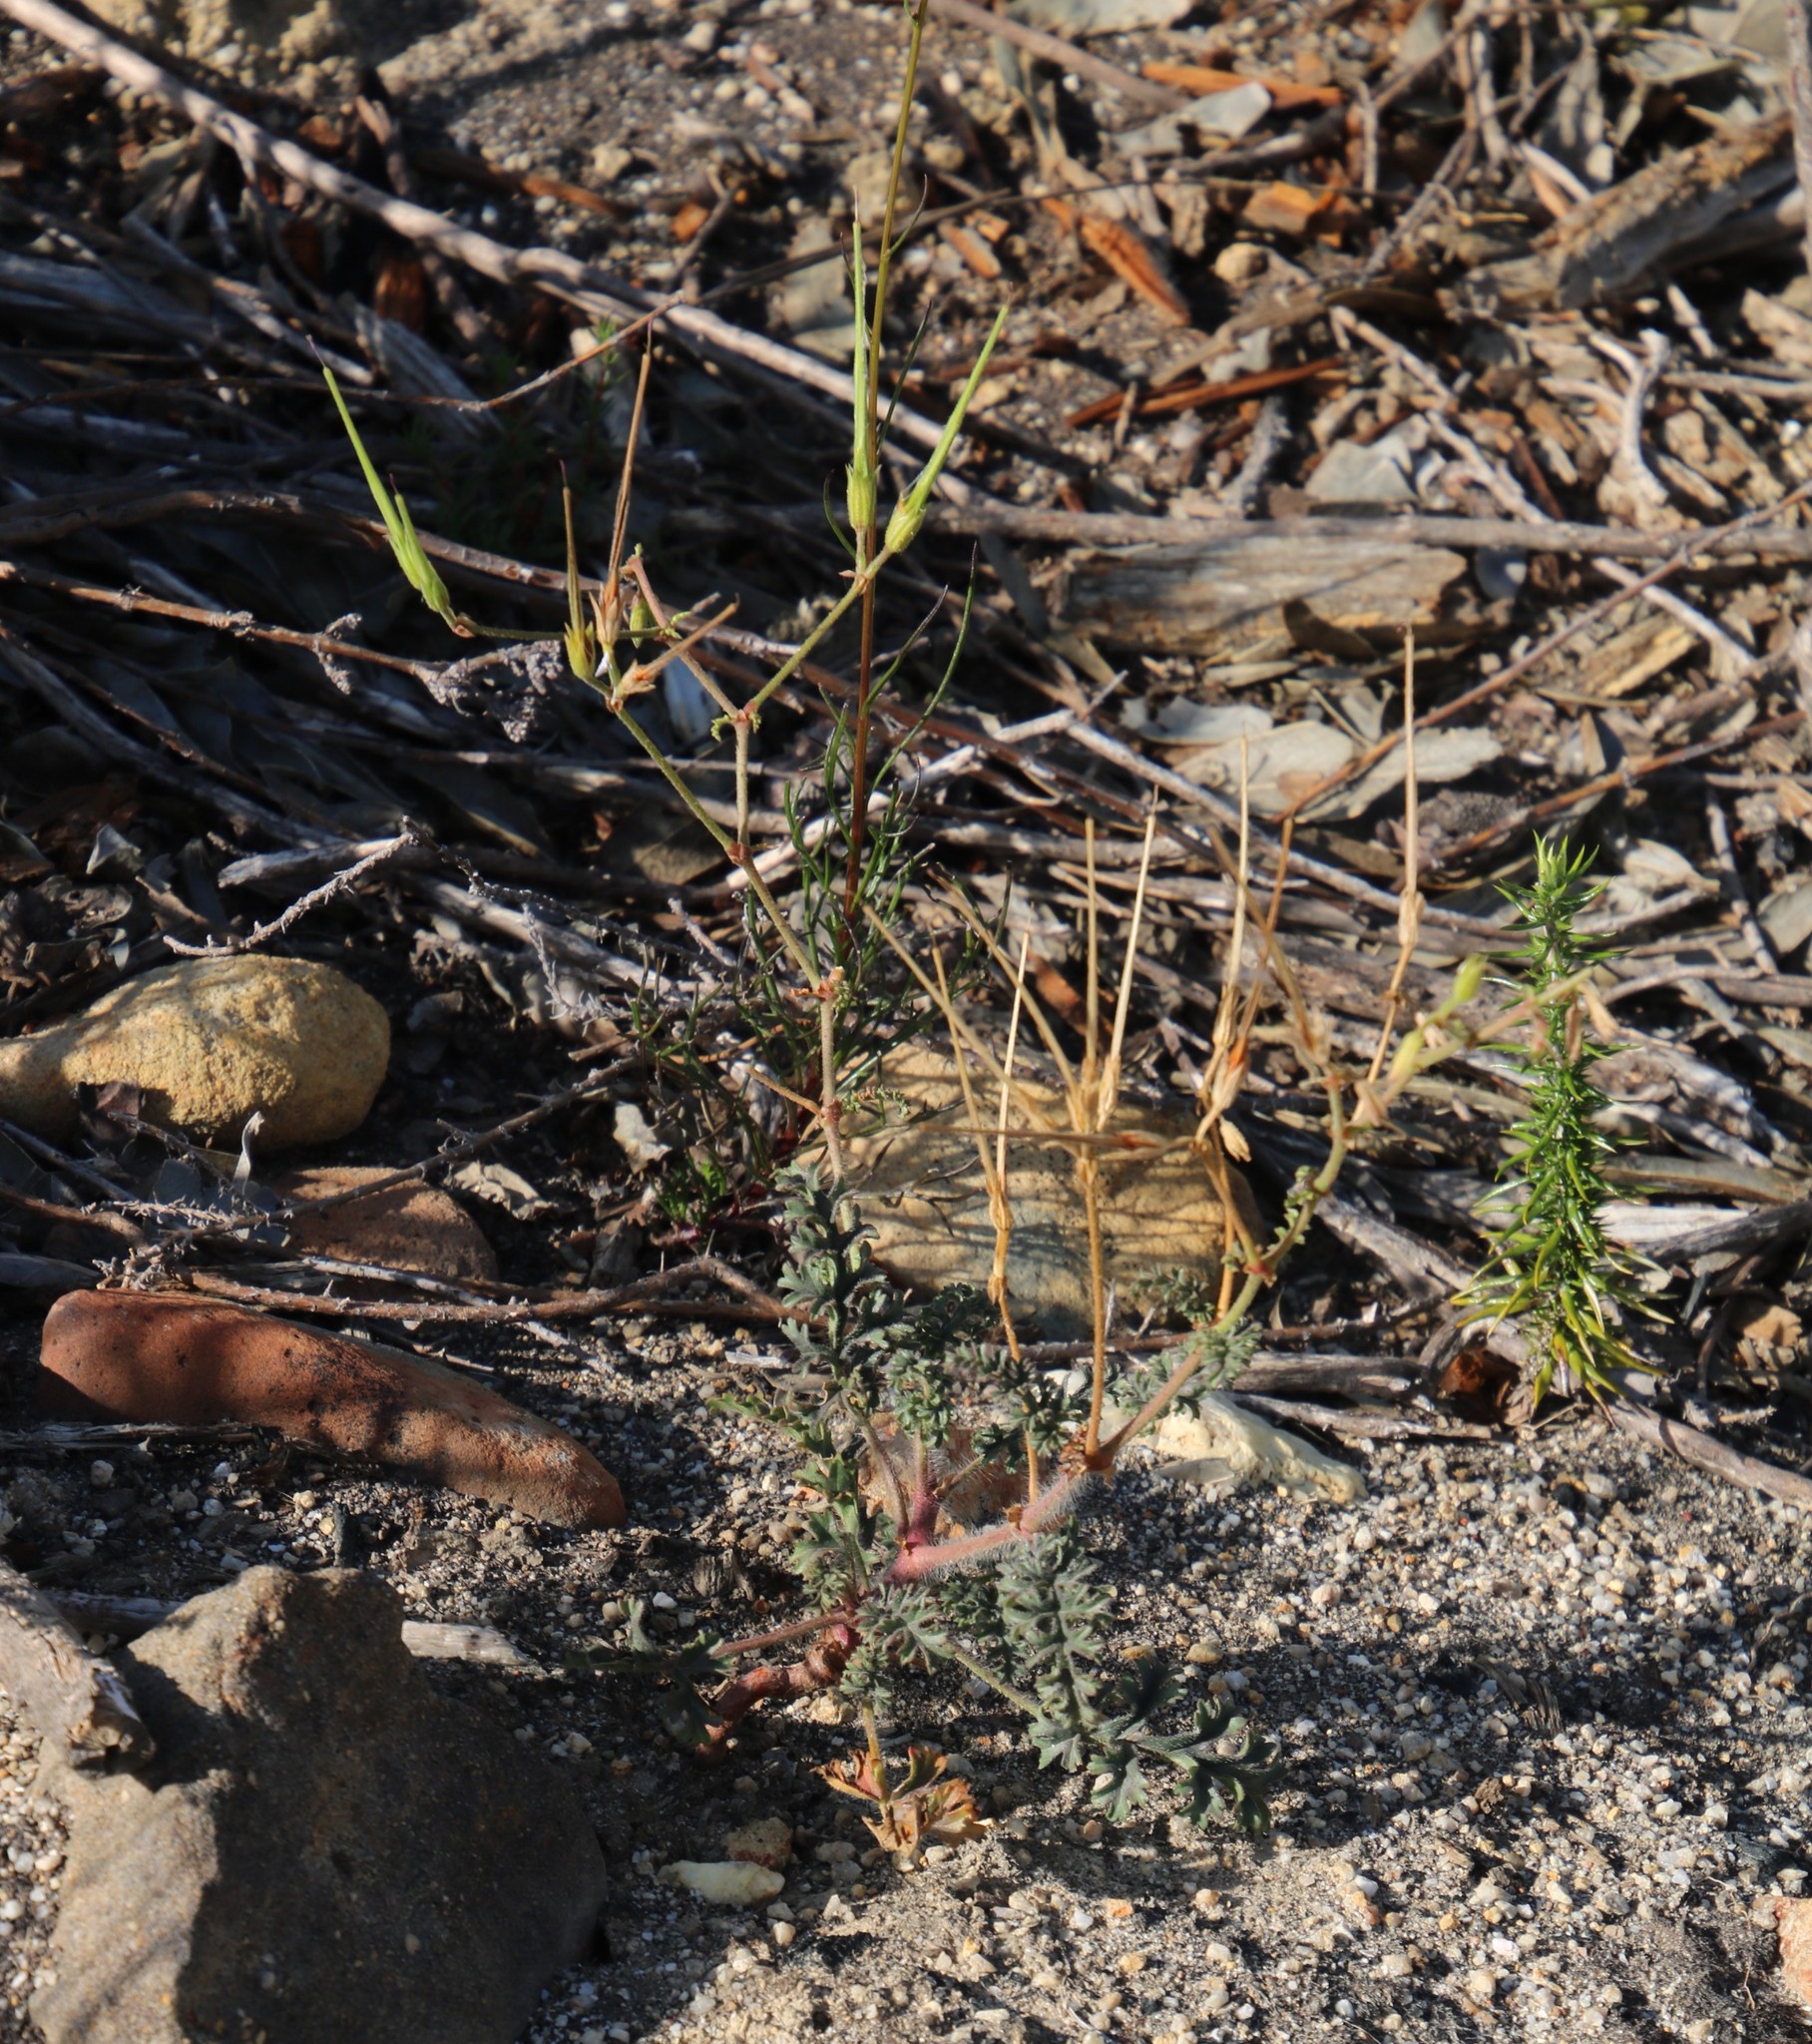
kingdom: Plantae
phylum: Tracheophyta
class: Magnoliopsida
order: Geraniales
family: Geraniaceae
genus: Pelargonium
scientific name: Pelargonium myrrhifolium
